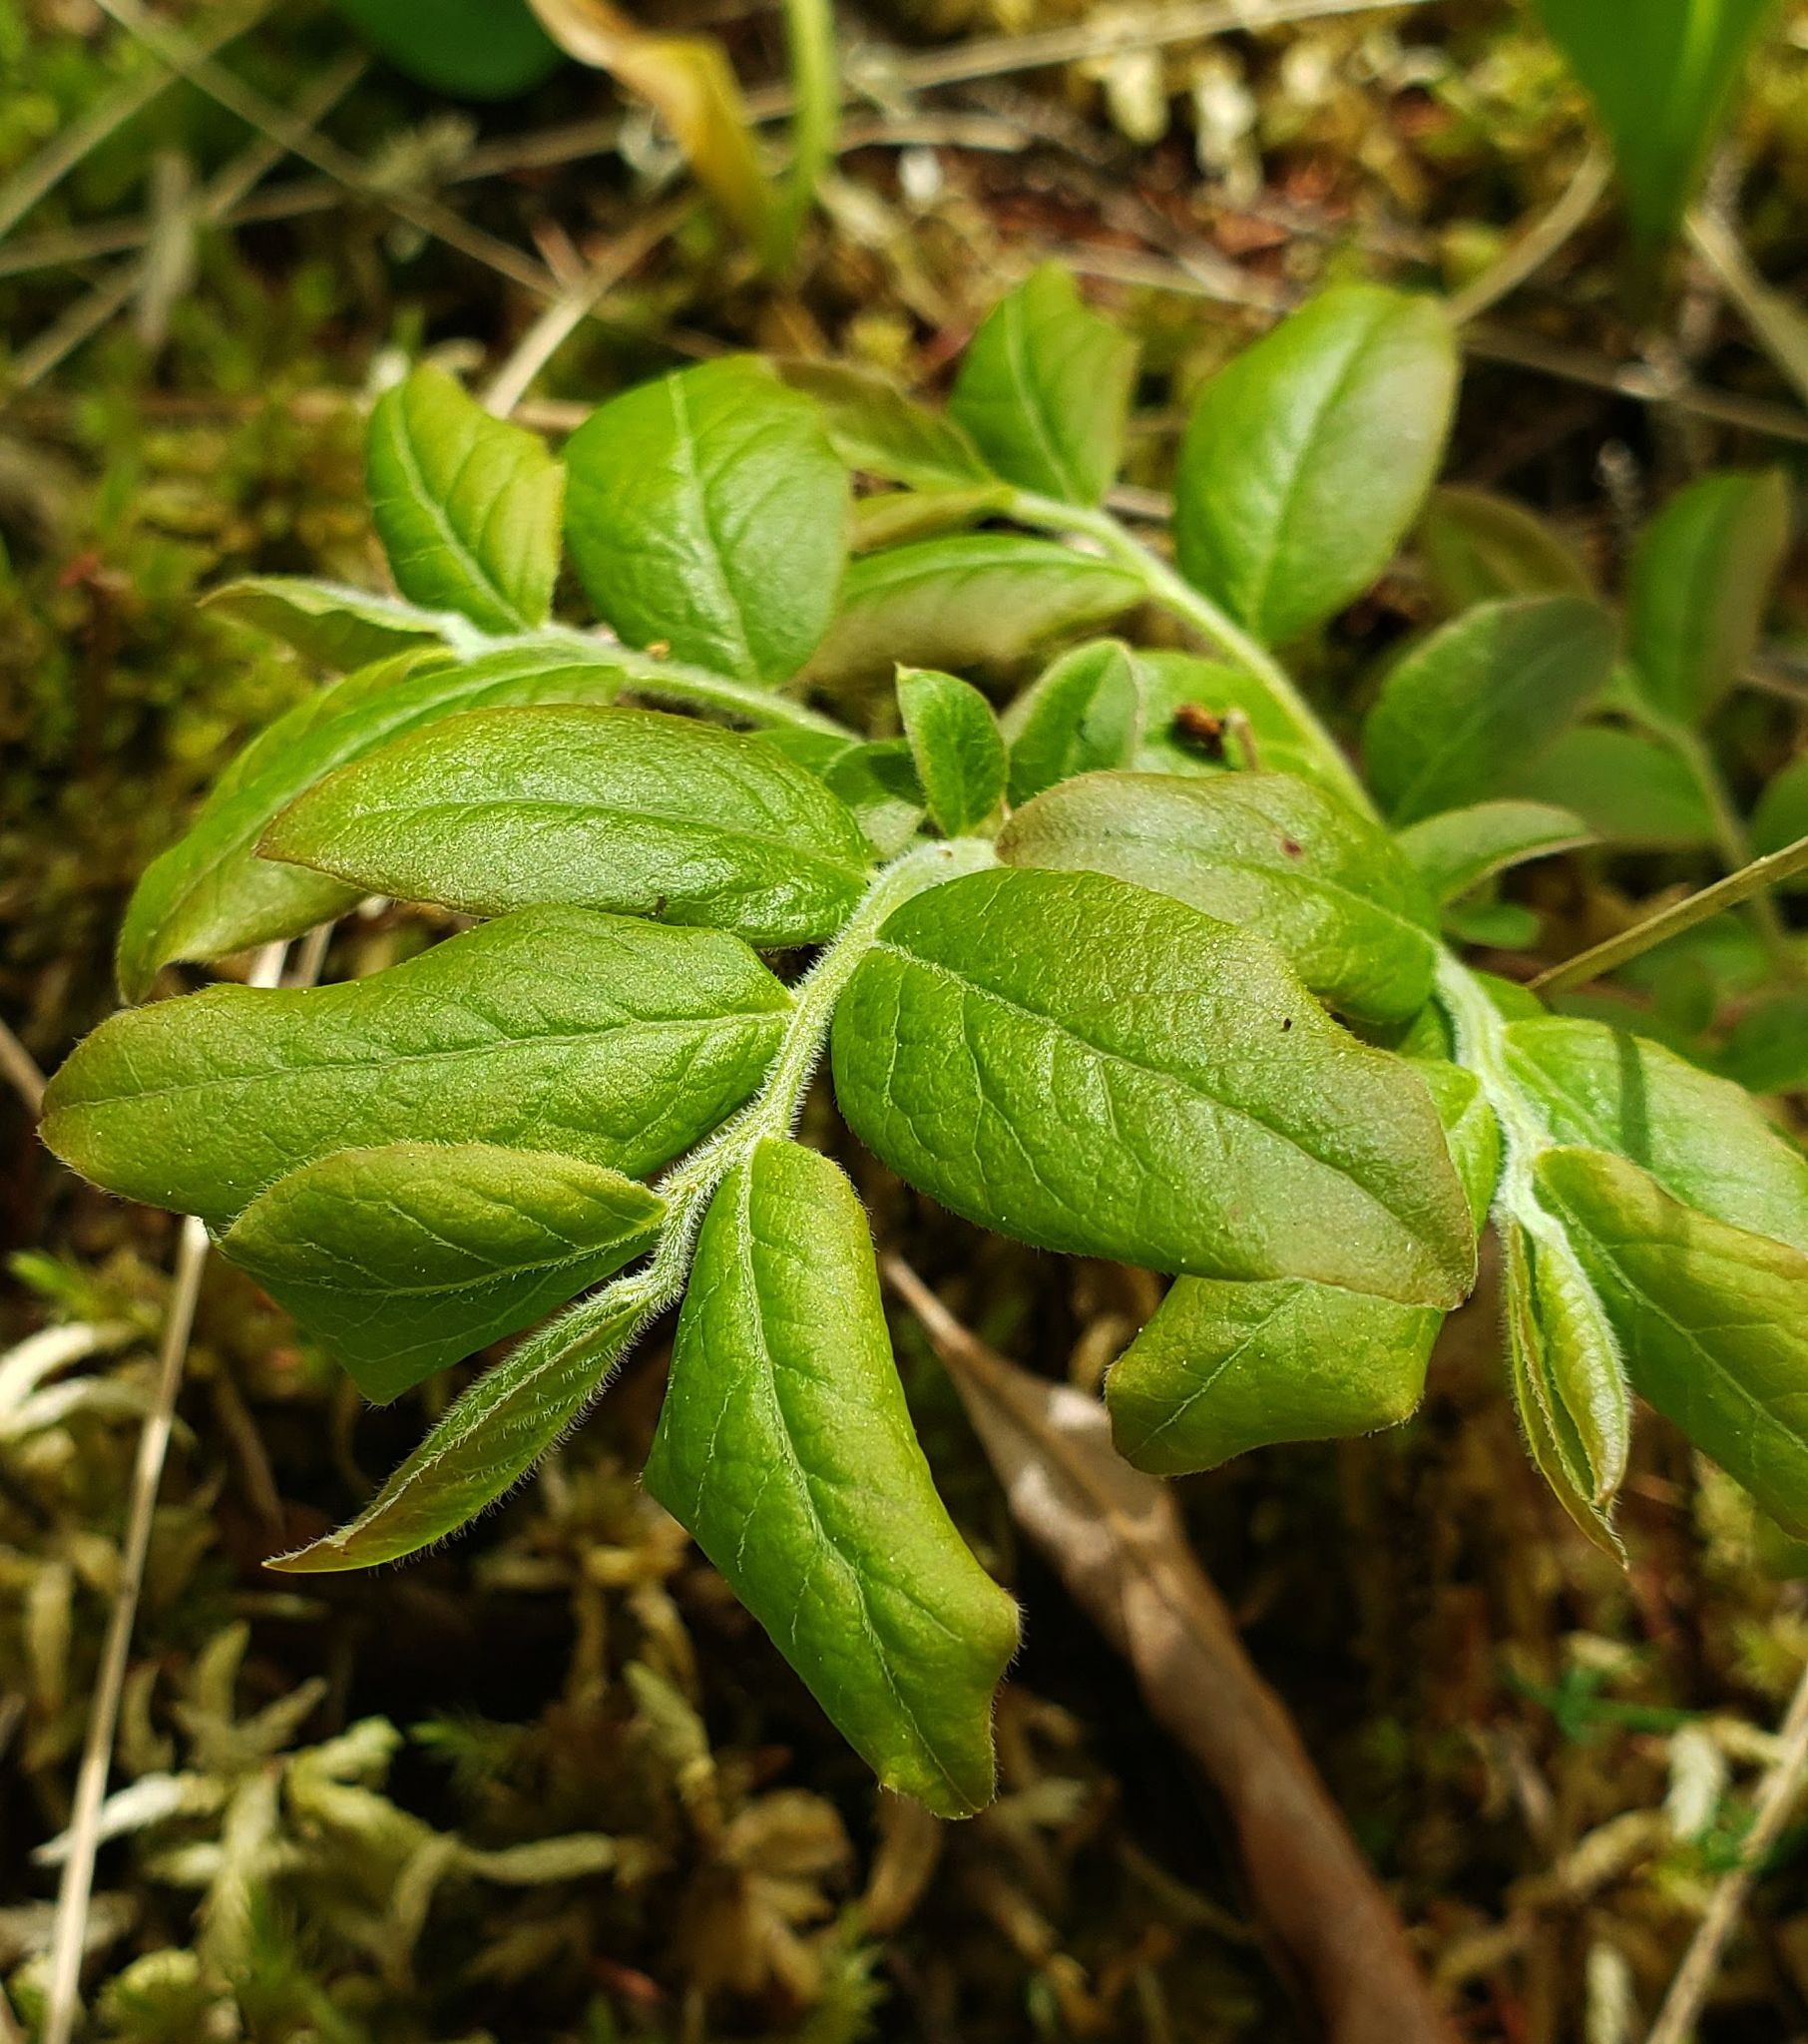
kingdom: Plantae
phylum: Tracheophyta
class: Magnoliopsida
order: Ericales
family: Ericaceae
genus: Vaccinium
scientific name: Vaccinium myrtilloides
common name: Canada blueberry
